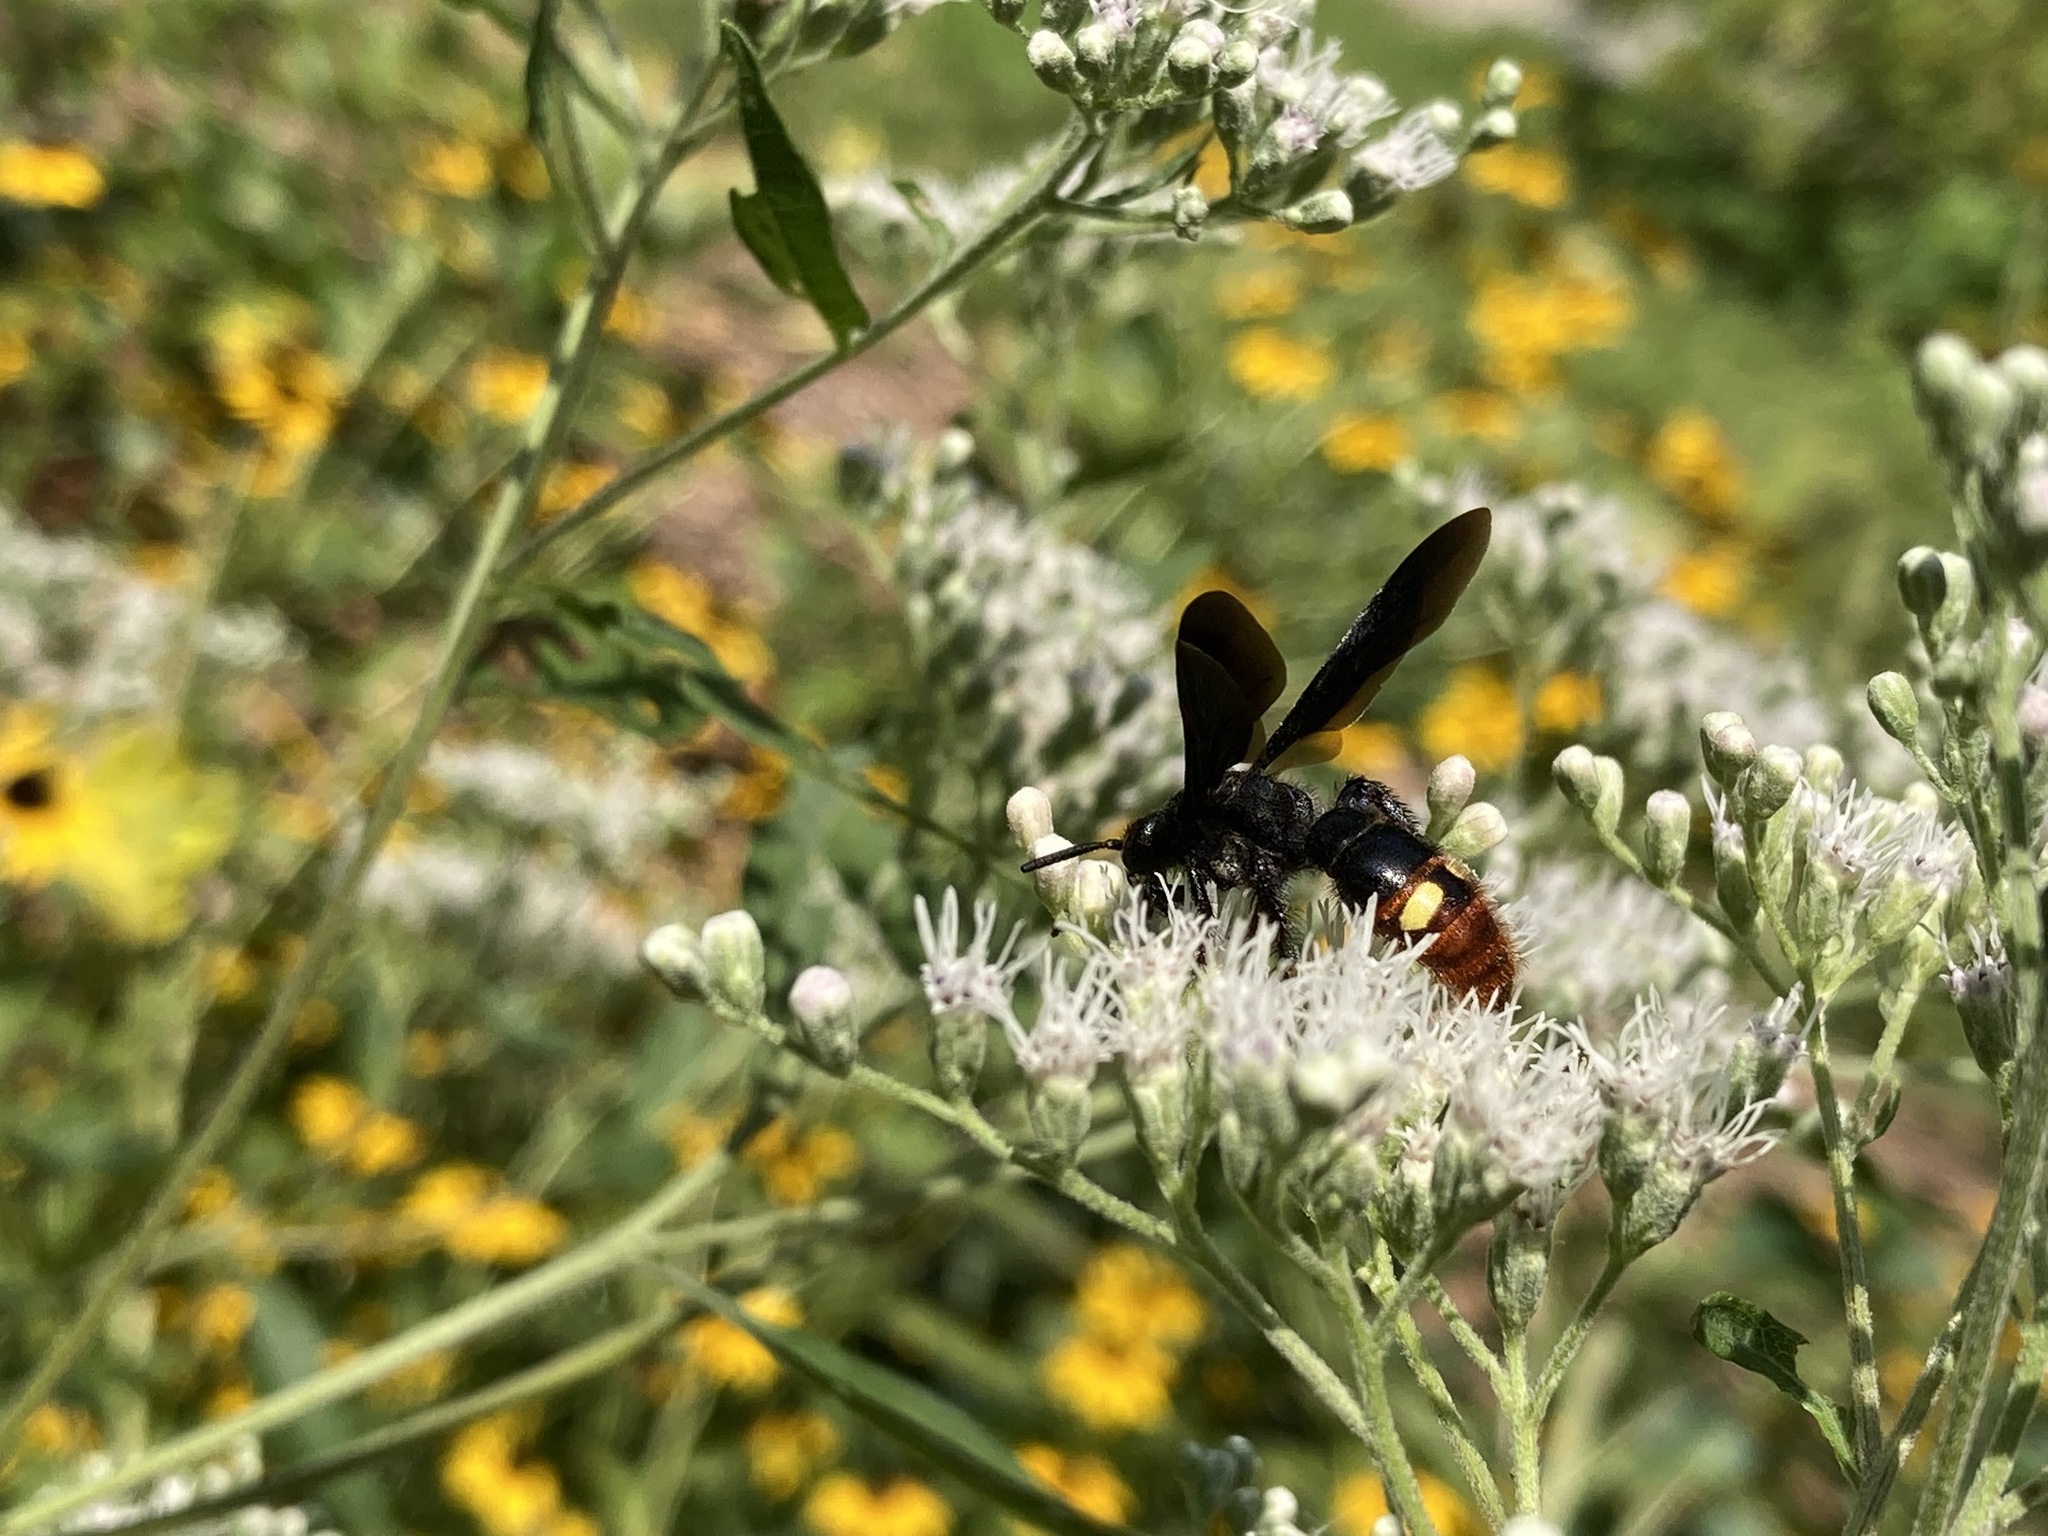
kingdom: Animalia
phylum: Arthropoda
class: Insecta
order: Hymenoptera
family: Scoliidae
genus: Scolia
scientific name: Scolia dubia
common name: Blue-winged scoliid wasp
